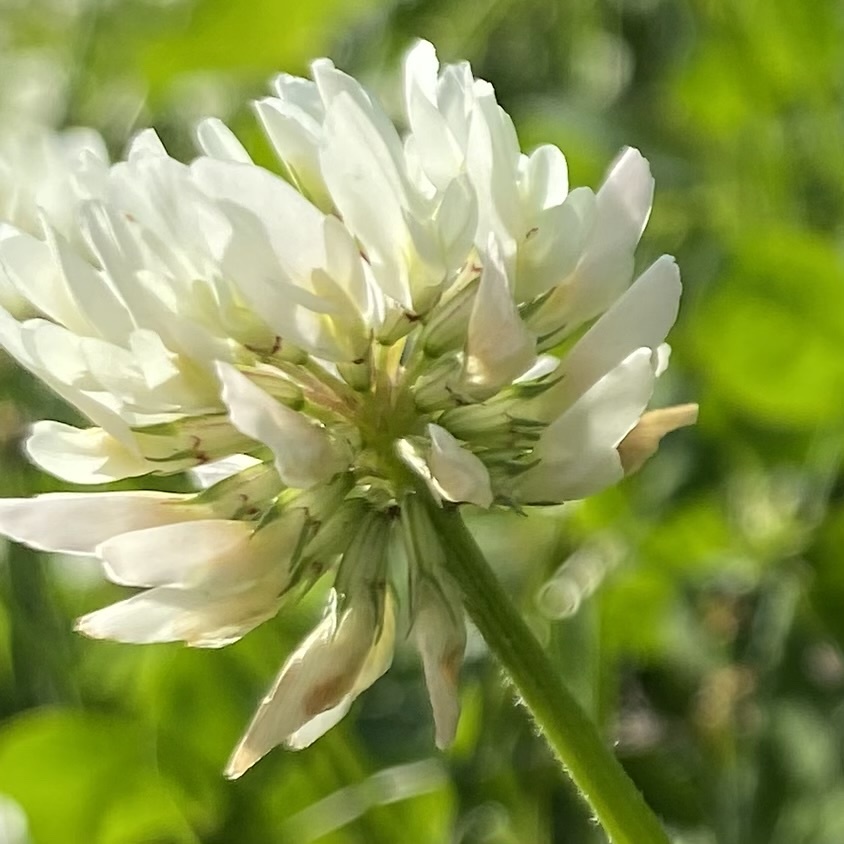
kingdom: Plantae
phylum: Tracheophyta
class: Magnoliopsida
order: Fabales
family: Fabaceae
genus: Trifolium
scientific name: Trifolium repens
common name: White clover
